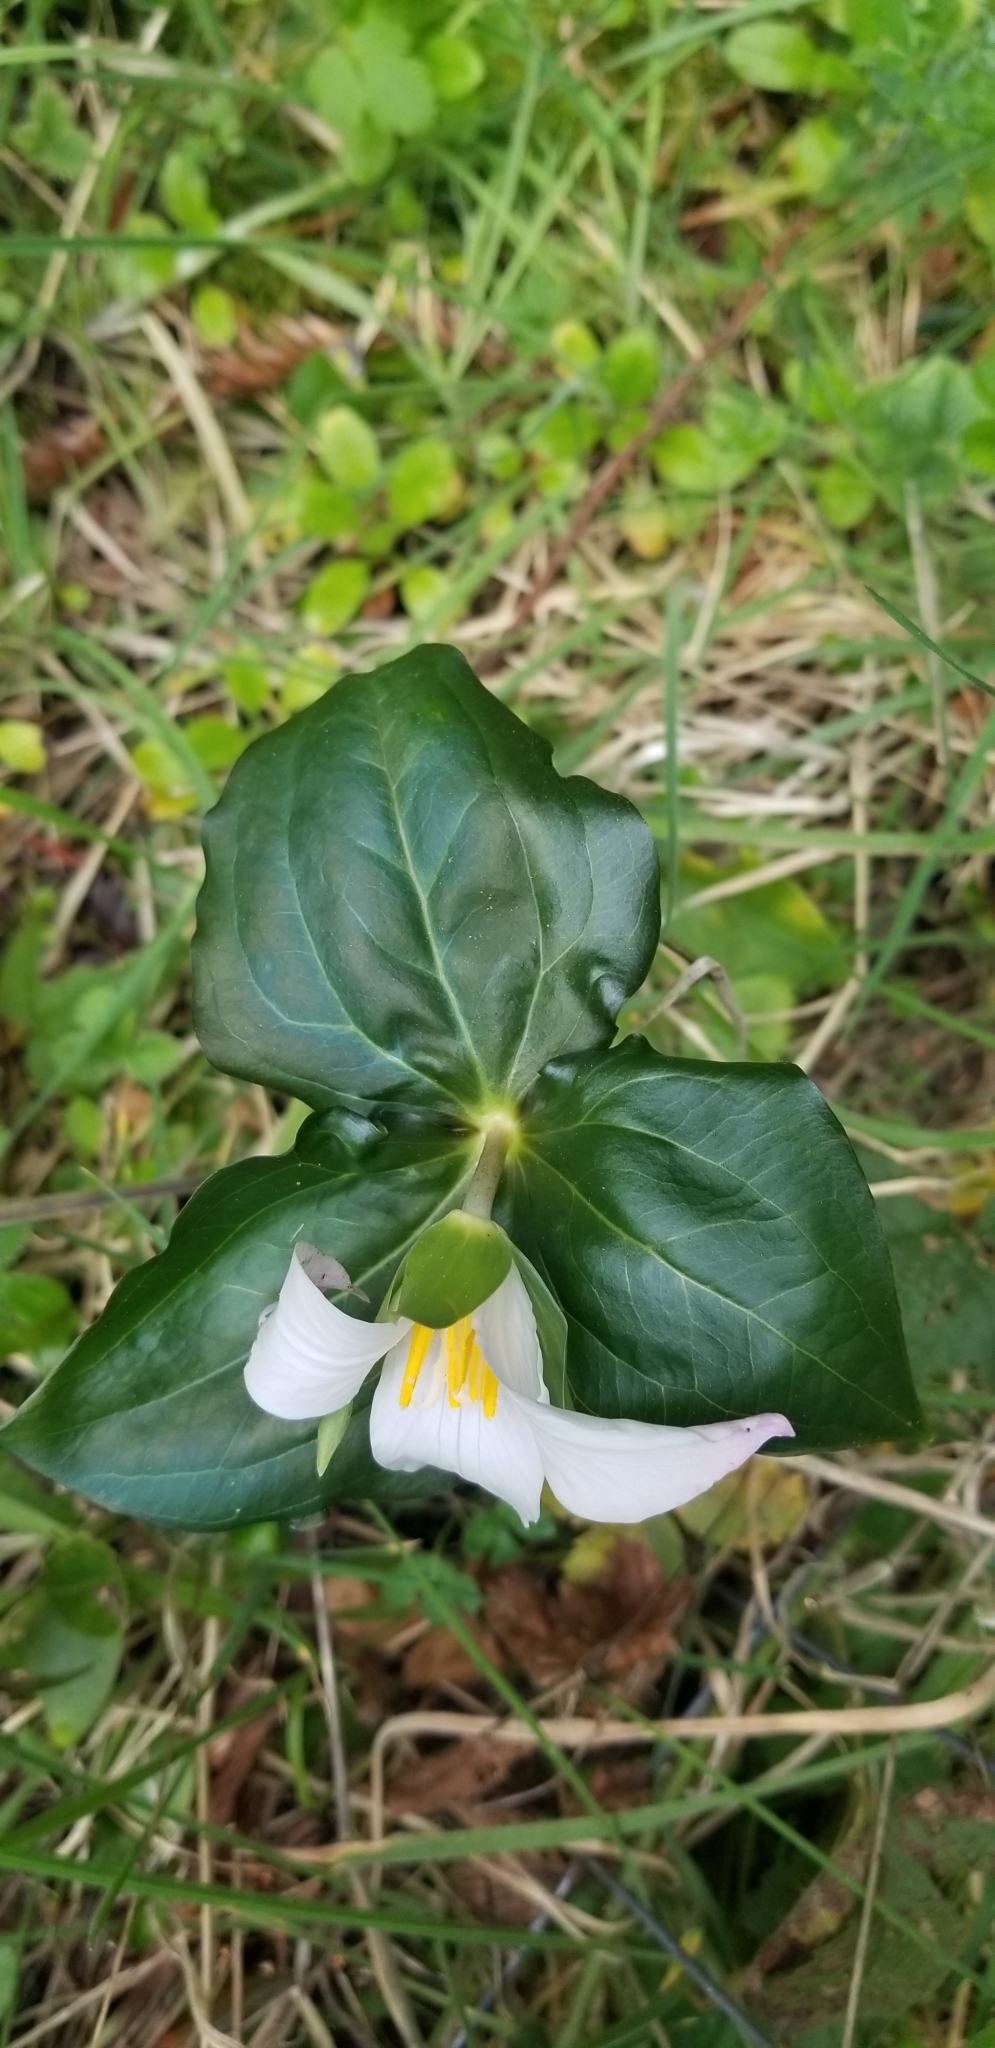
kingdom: Plantae
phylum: Tracheophyta
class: Liliopsida
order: Liliales
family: Melanthiaceae
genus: Trillium
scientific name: Trillium ovatum
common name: Pacific trillium
